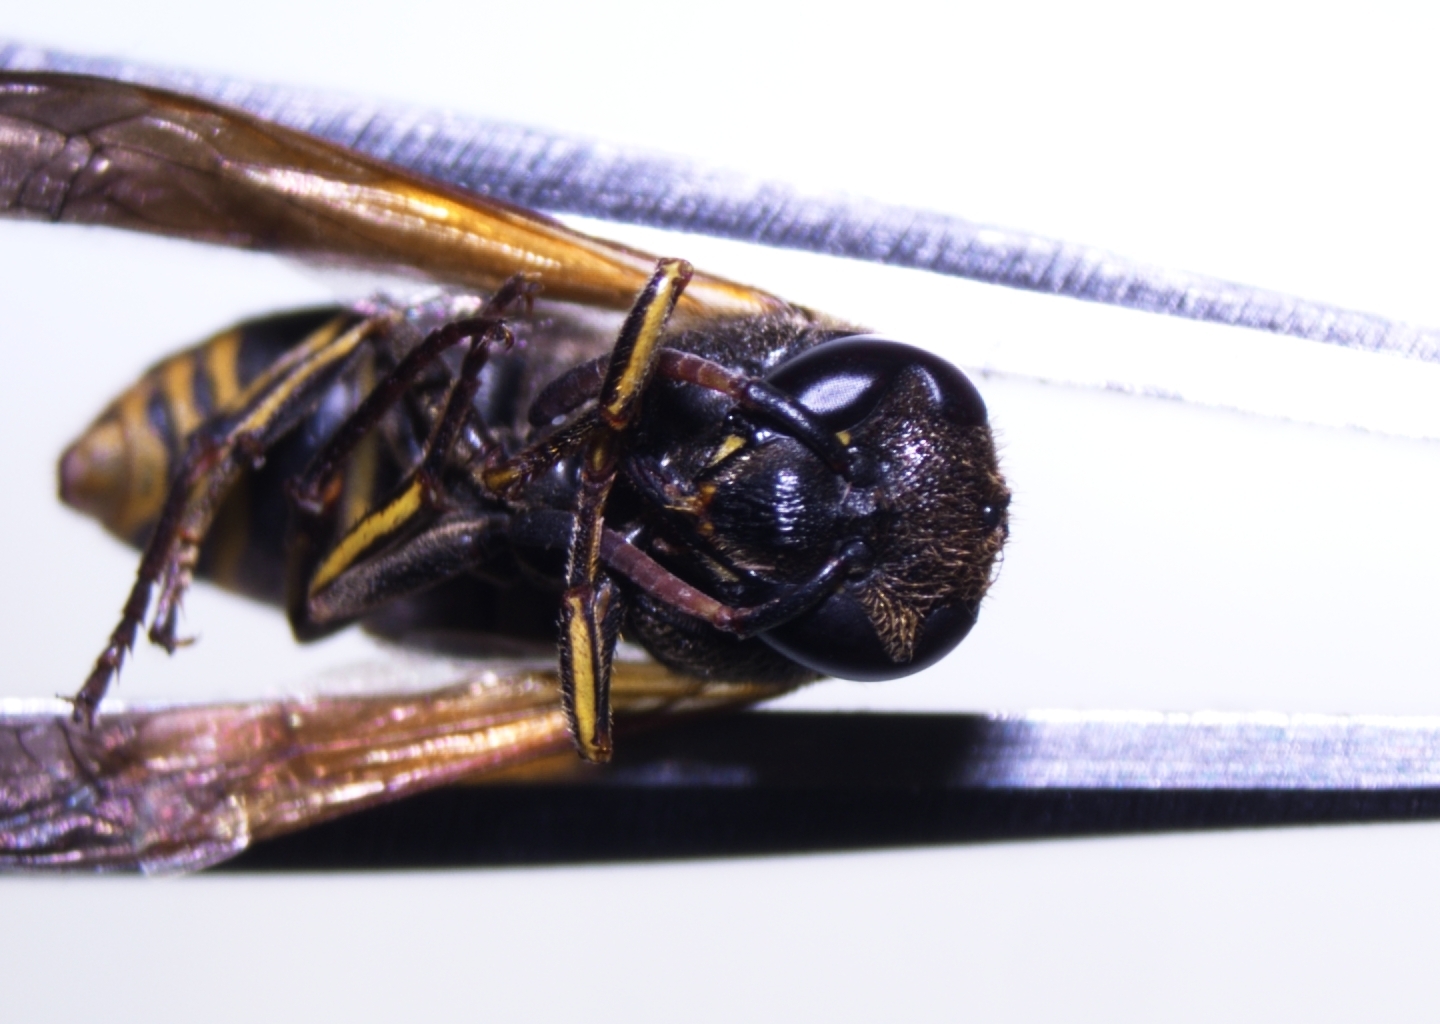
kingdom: Animalia
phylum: Arthropoda
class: Insecta
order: Hymenoptera
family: Eumenidae
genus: Pachodynerus
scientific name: Pachodynerus nasidens
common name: Key hole wasp
